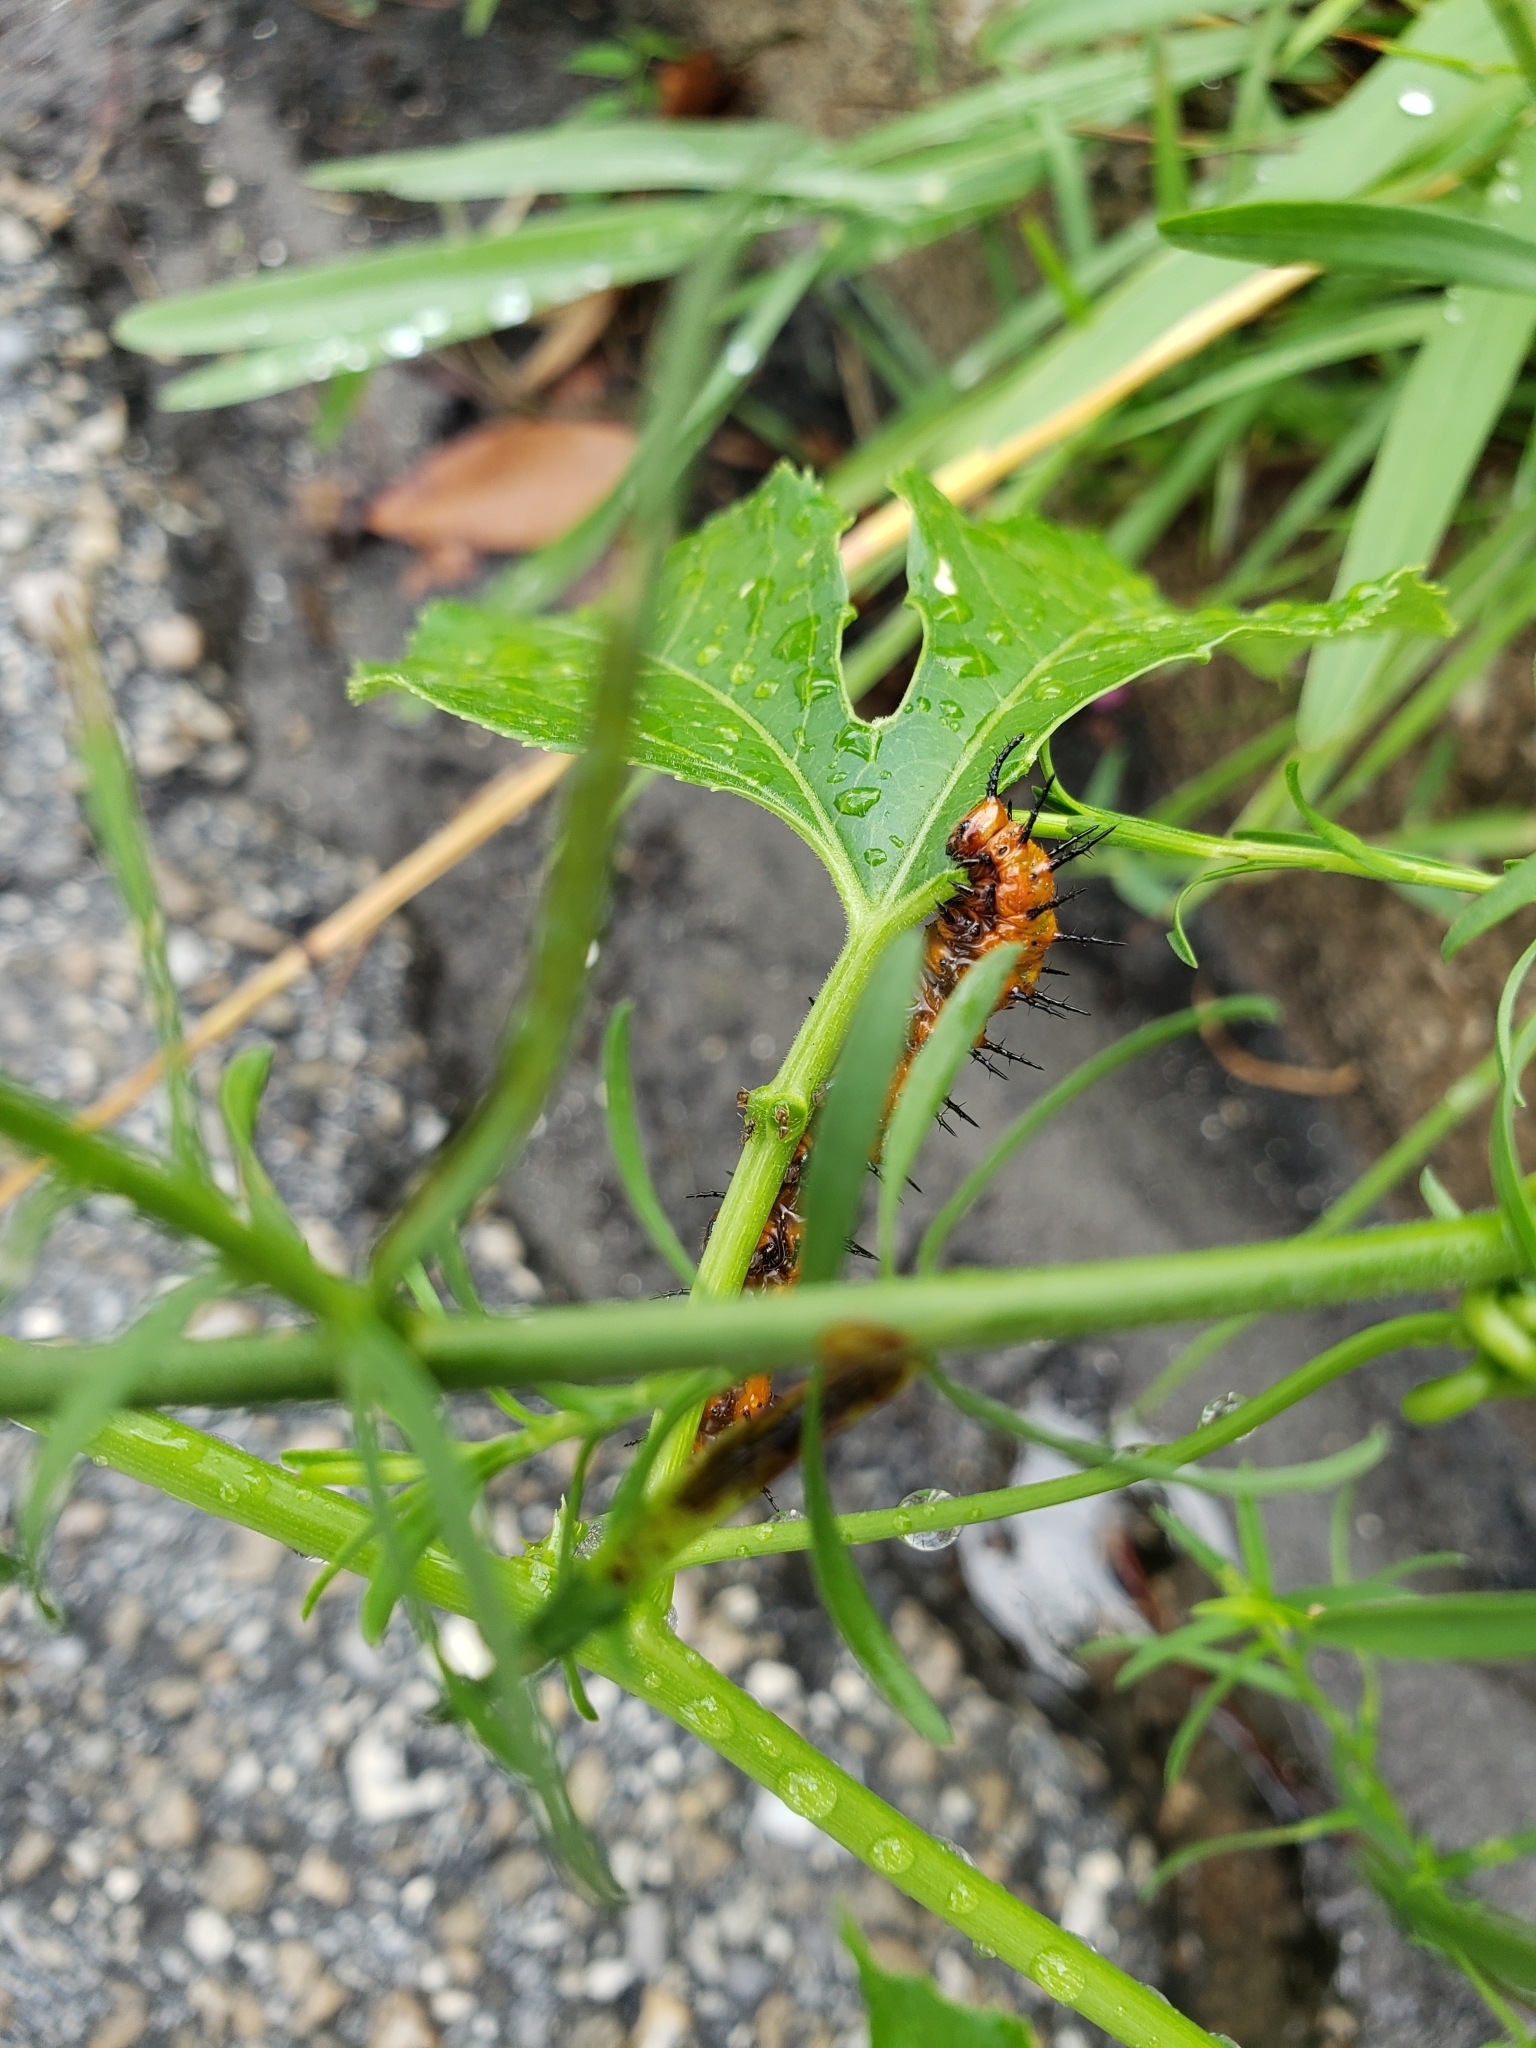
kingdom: Animalia
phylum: Arthropoda
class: Insecta
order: Lepidoptera
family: Nymphalidae
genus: Dione
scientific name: Dione vanillae
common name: Gulf fritillary
